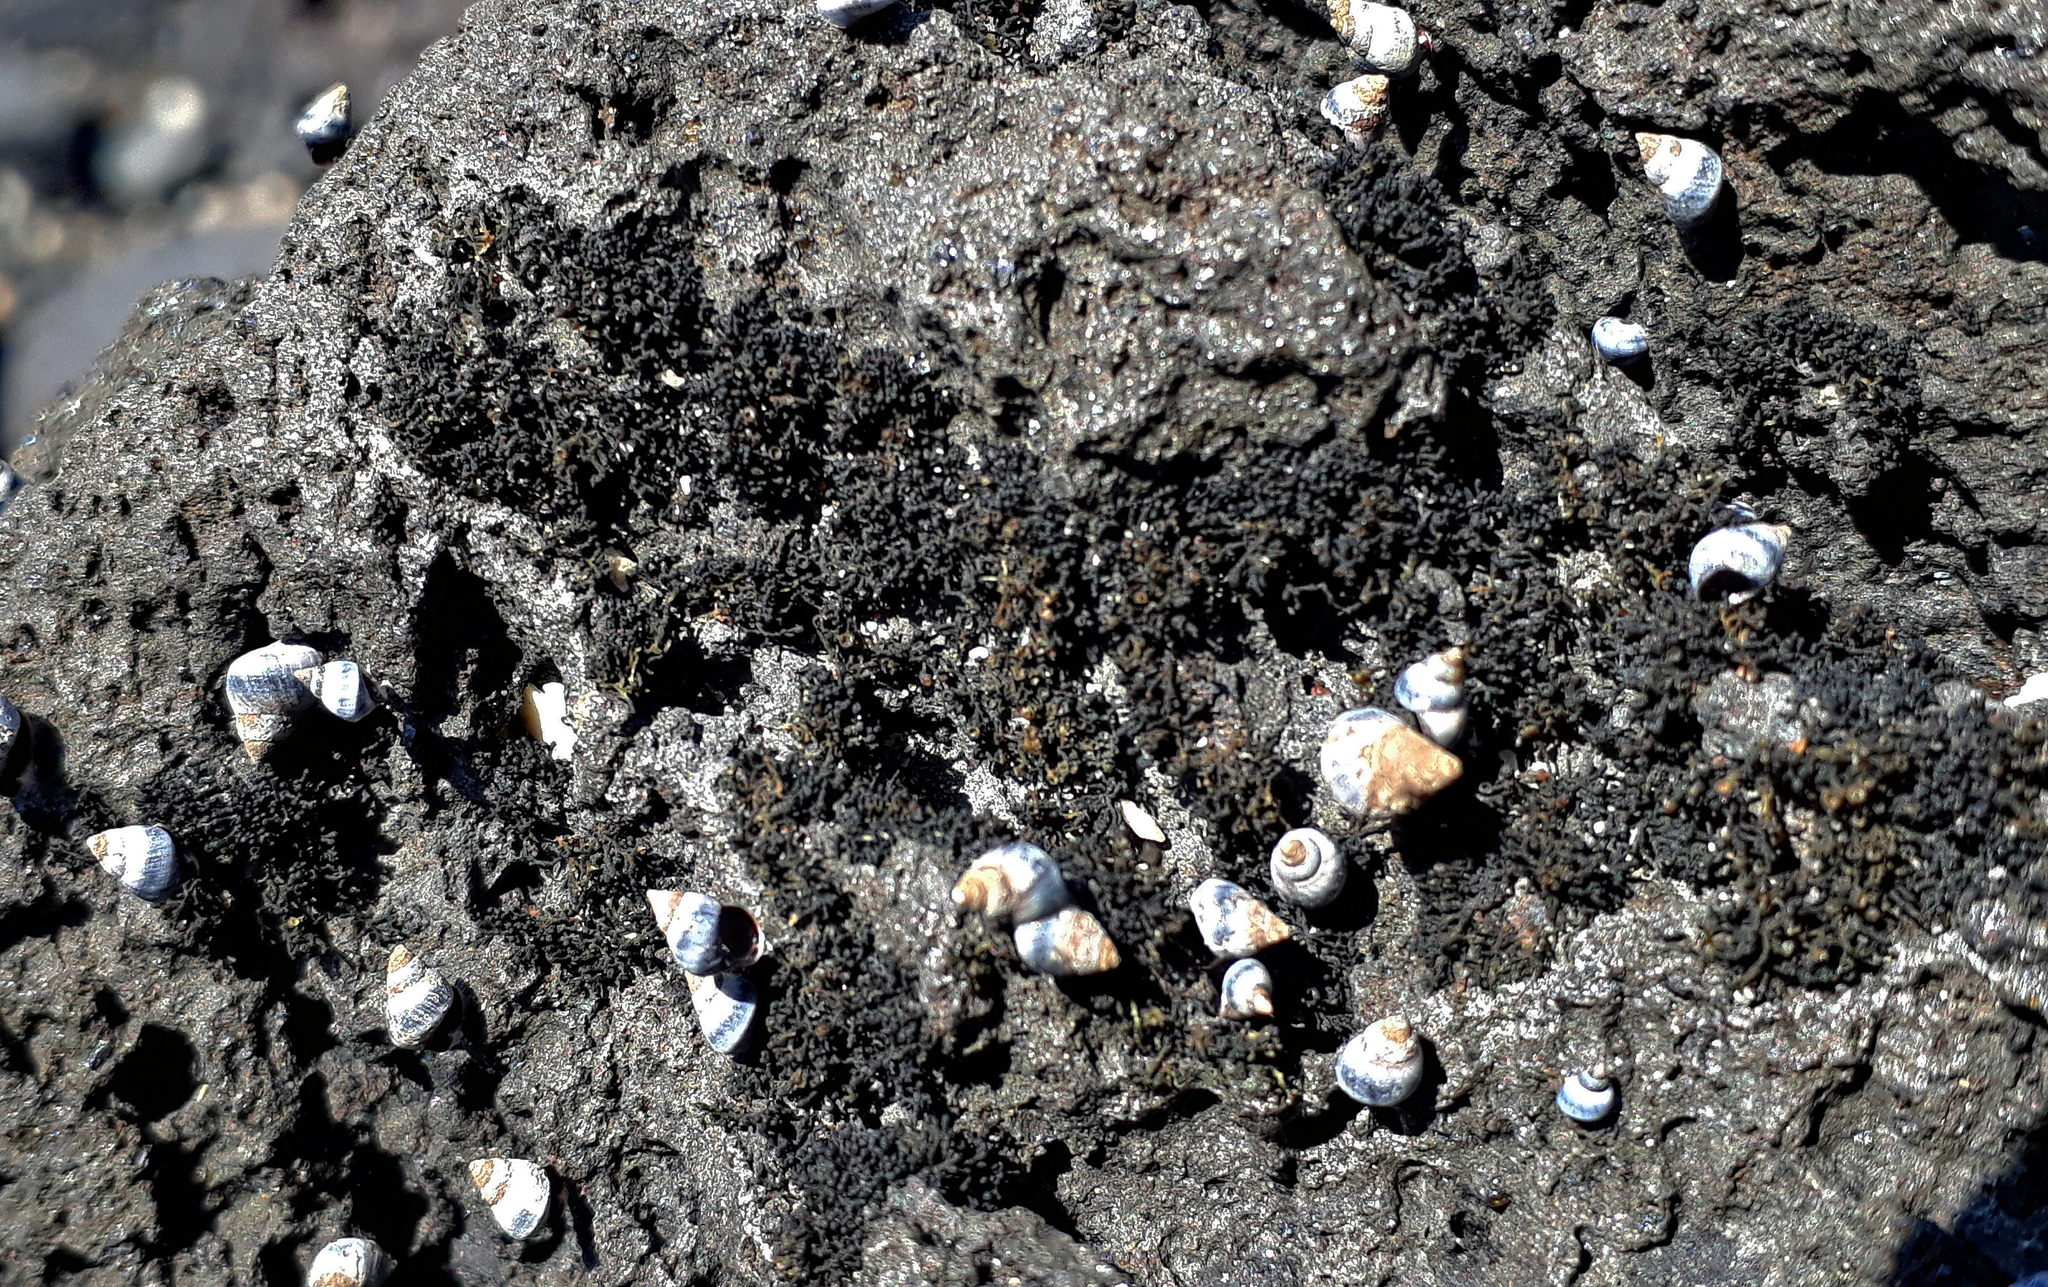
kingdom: Fungi
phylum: Ascomycota
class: Lichinomycetes
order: Lichinales
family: Lichinaceae
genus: Lichina
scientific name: Lichina intermedia
